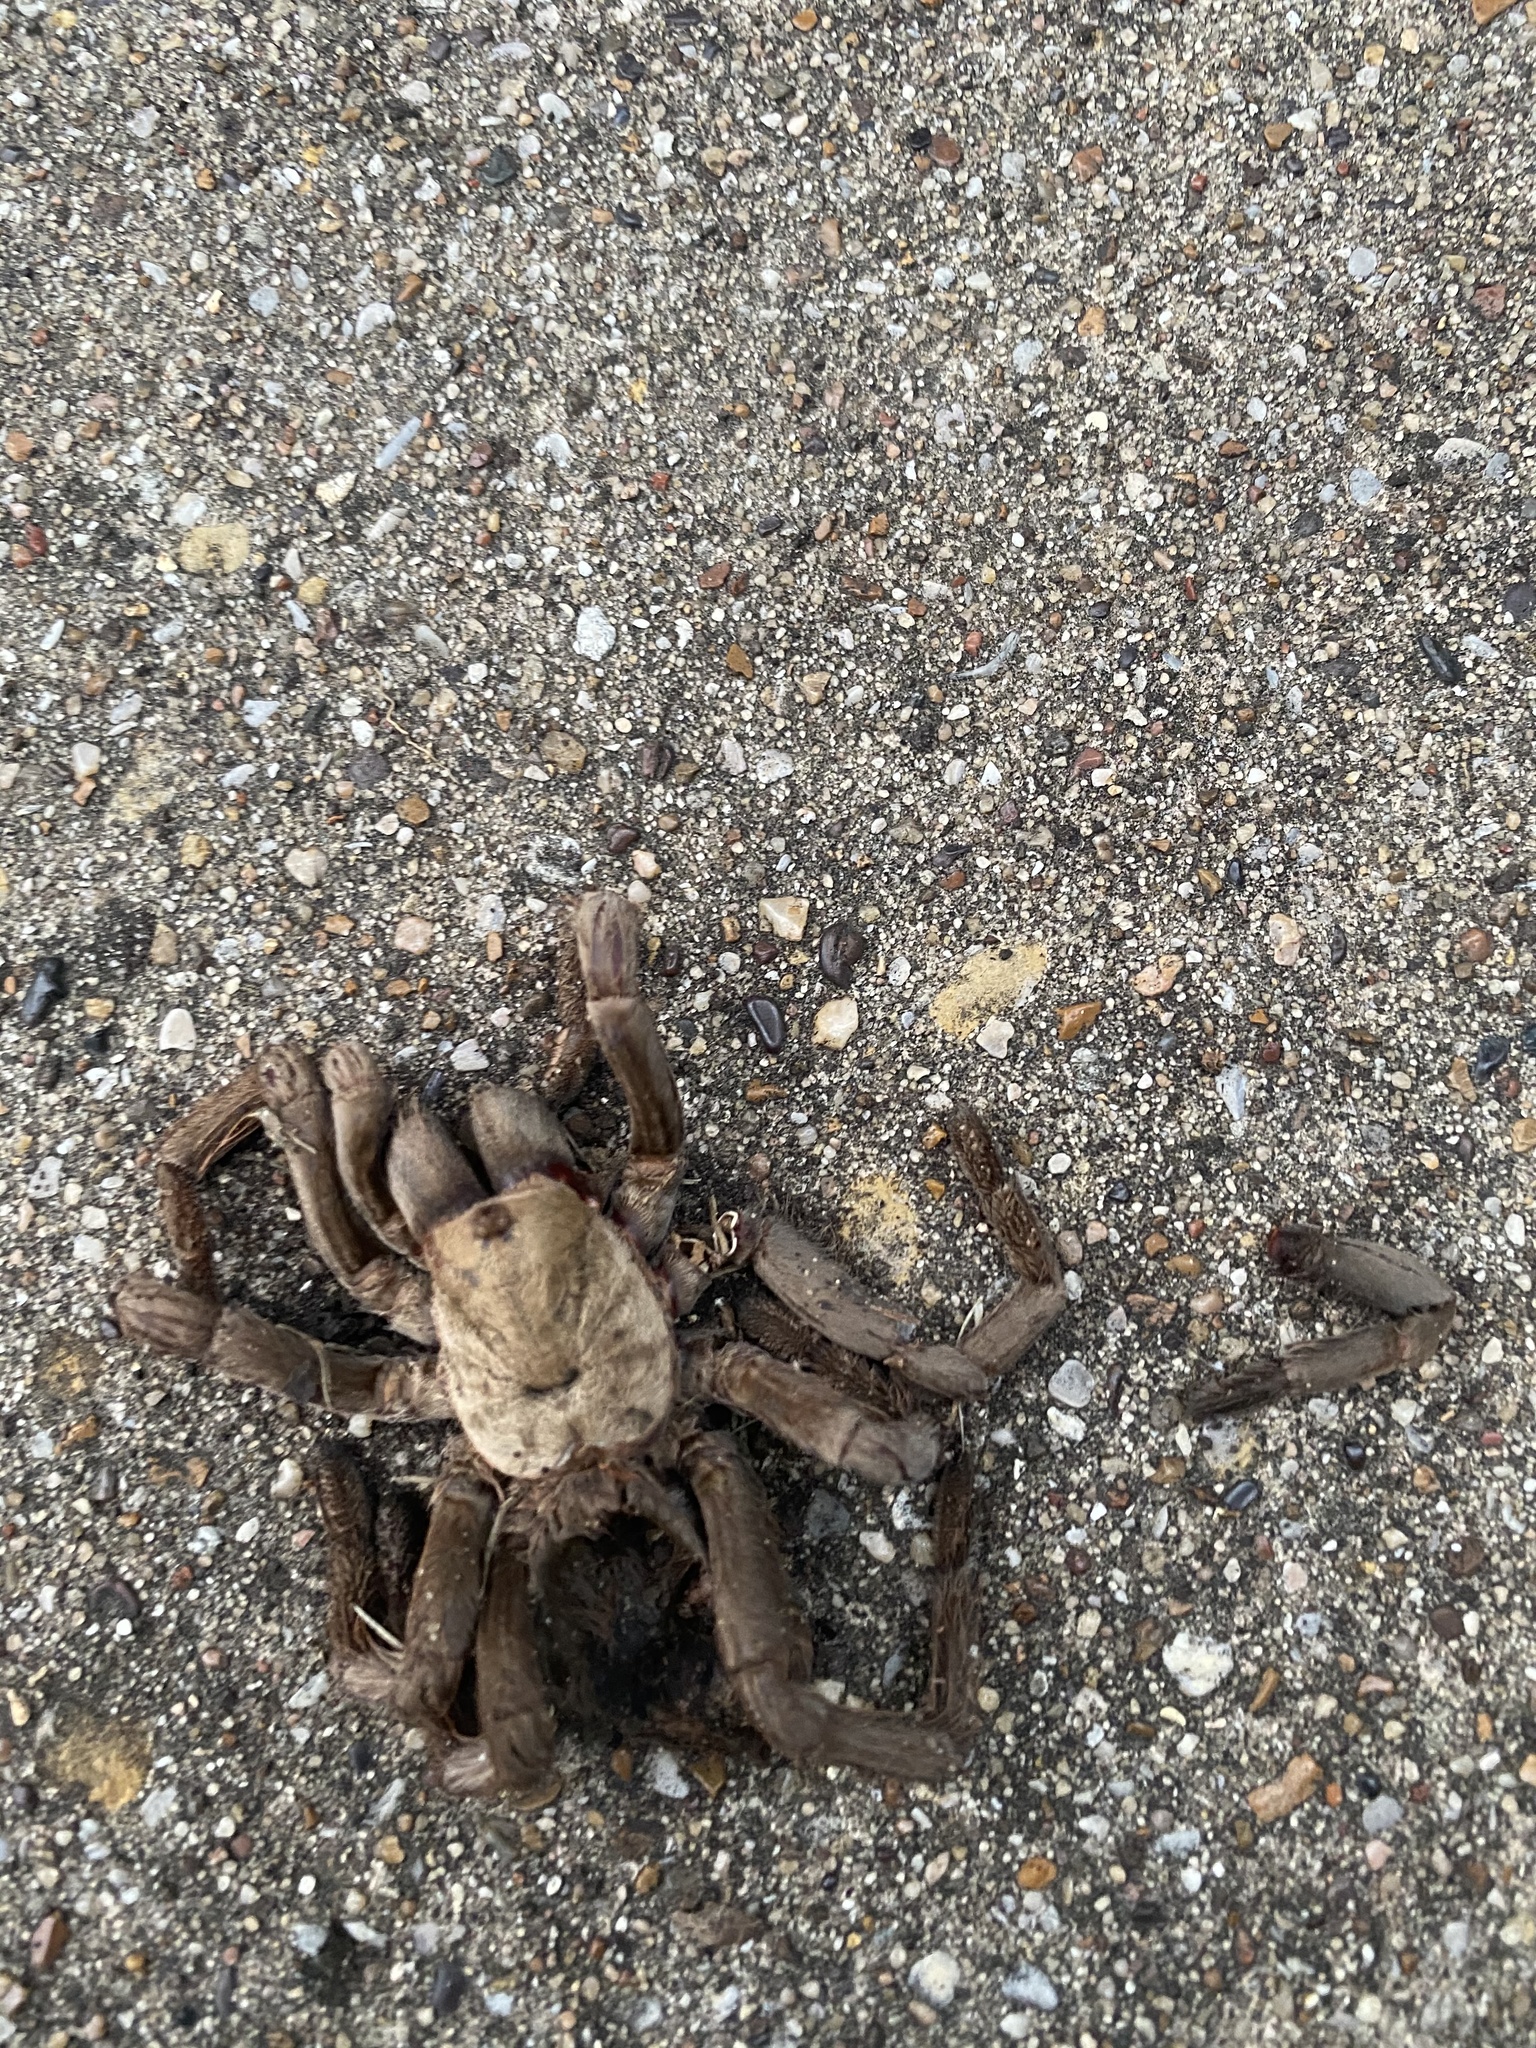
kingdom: Animalia
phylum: Arthropoda
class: Arachnida
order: Araneae
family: Theraphosidae
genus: Aphonopelma
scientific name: Aphonopelma hentzi
